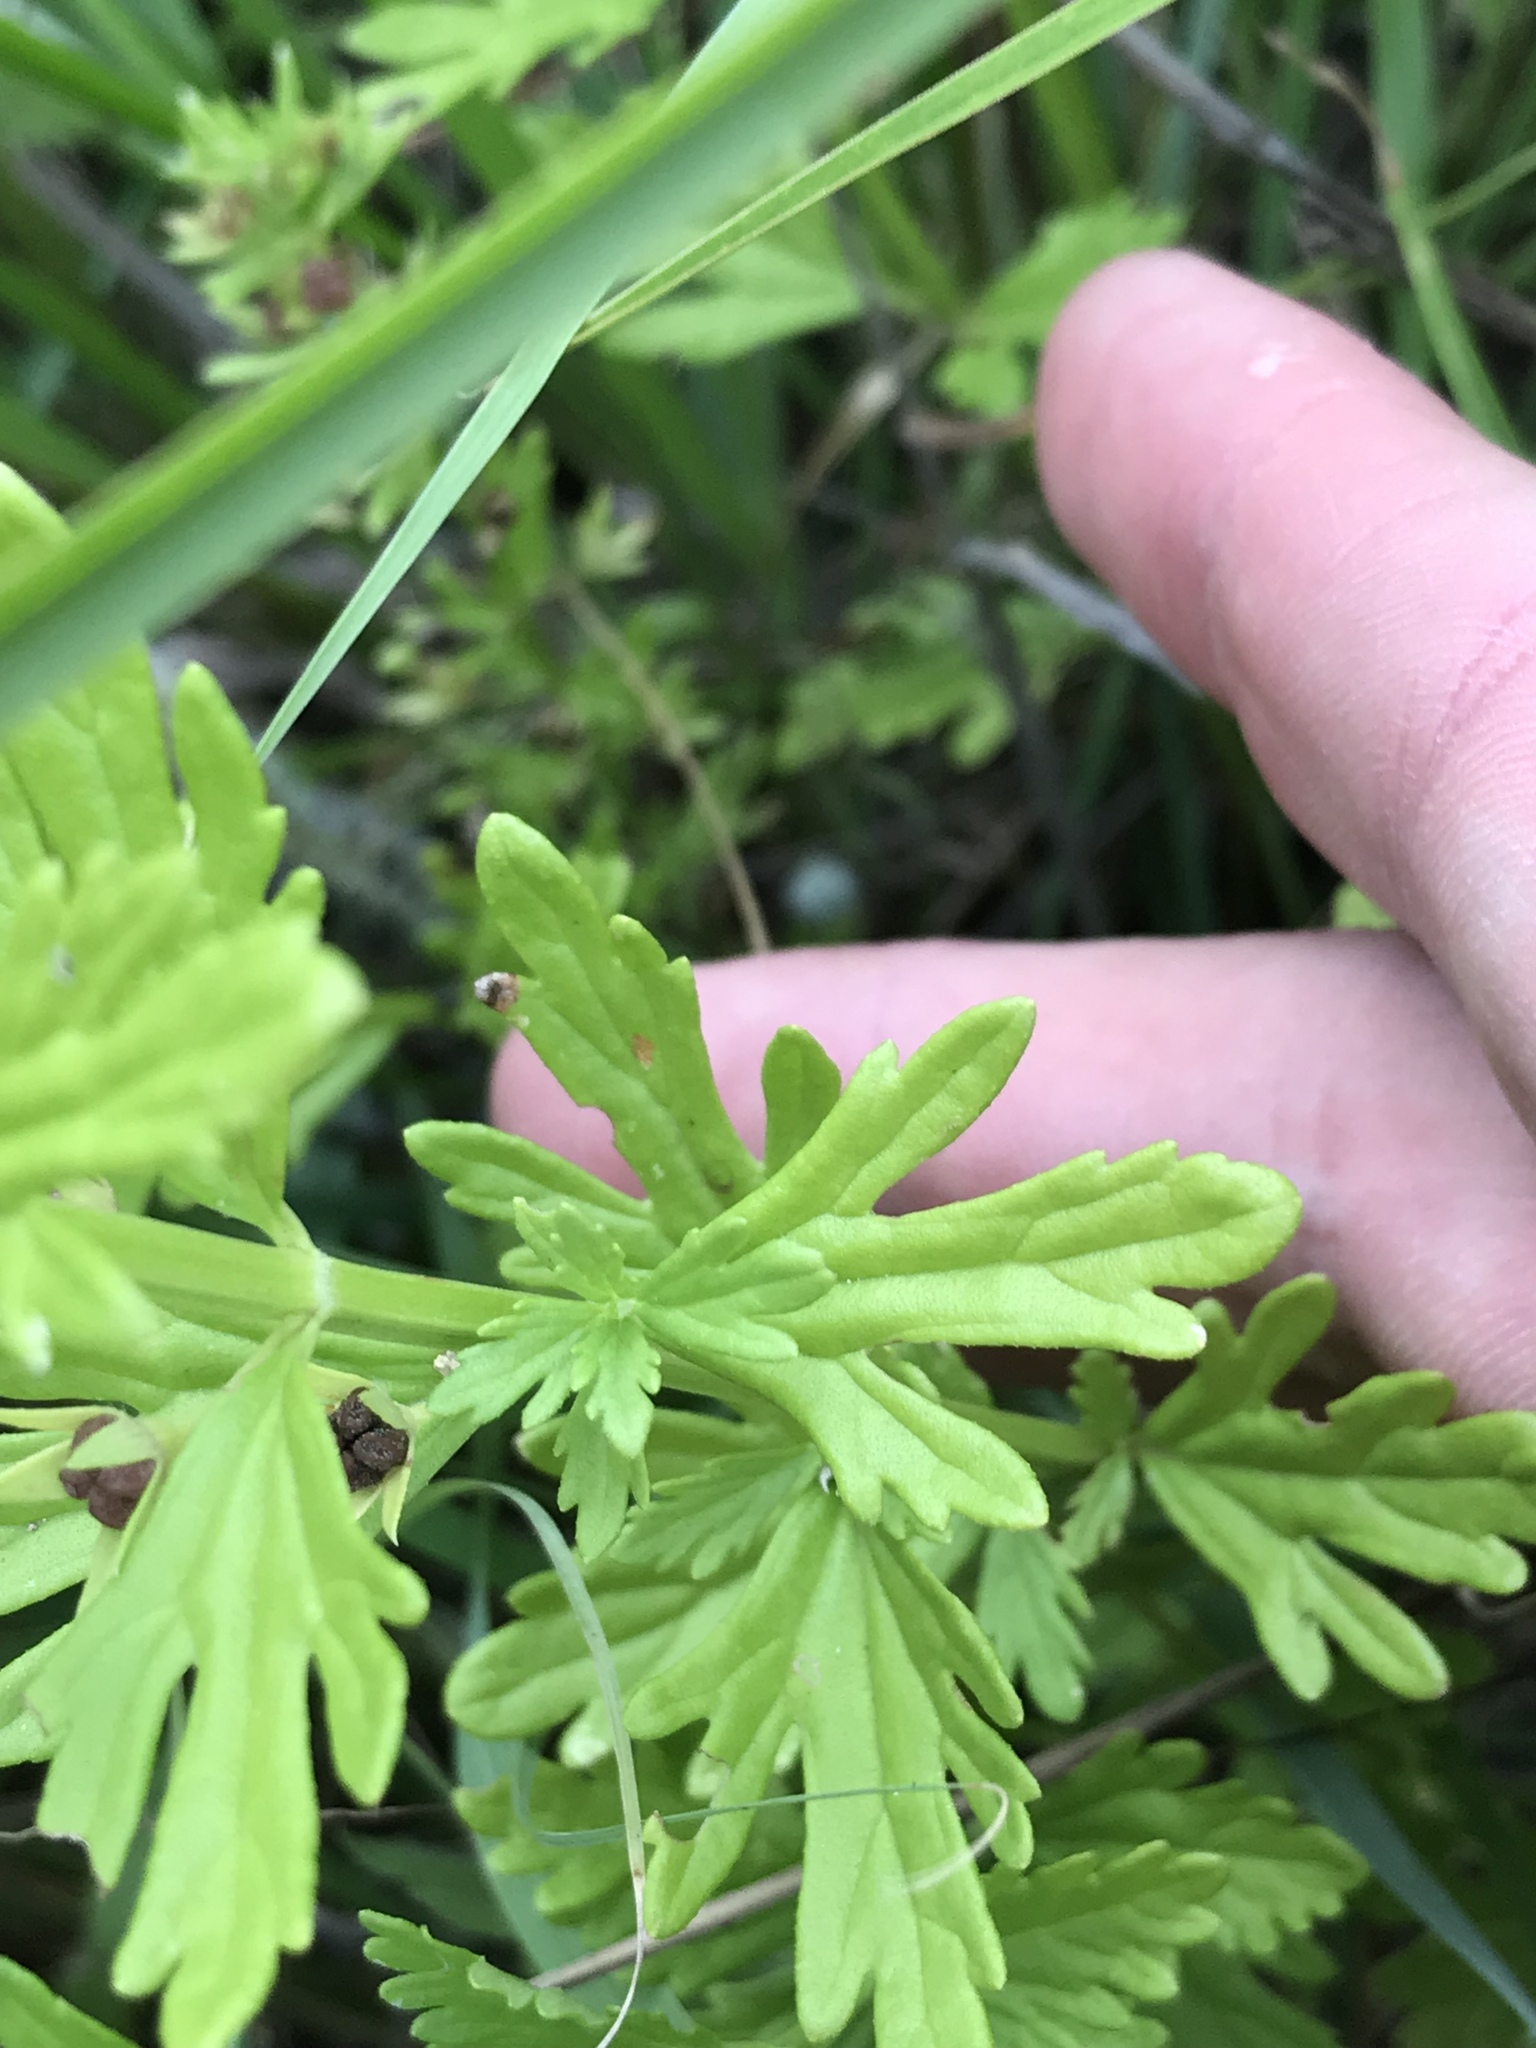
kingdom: Plantae
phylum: Tracheophyta
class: Magnoliopsida
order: Lamiales
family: Lamiaceae
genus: Teucrium
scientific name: Teucrium cubense
